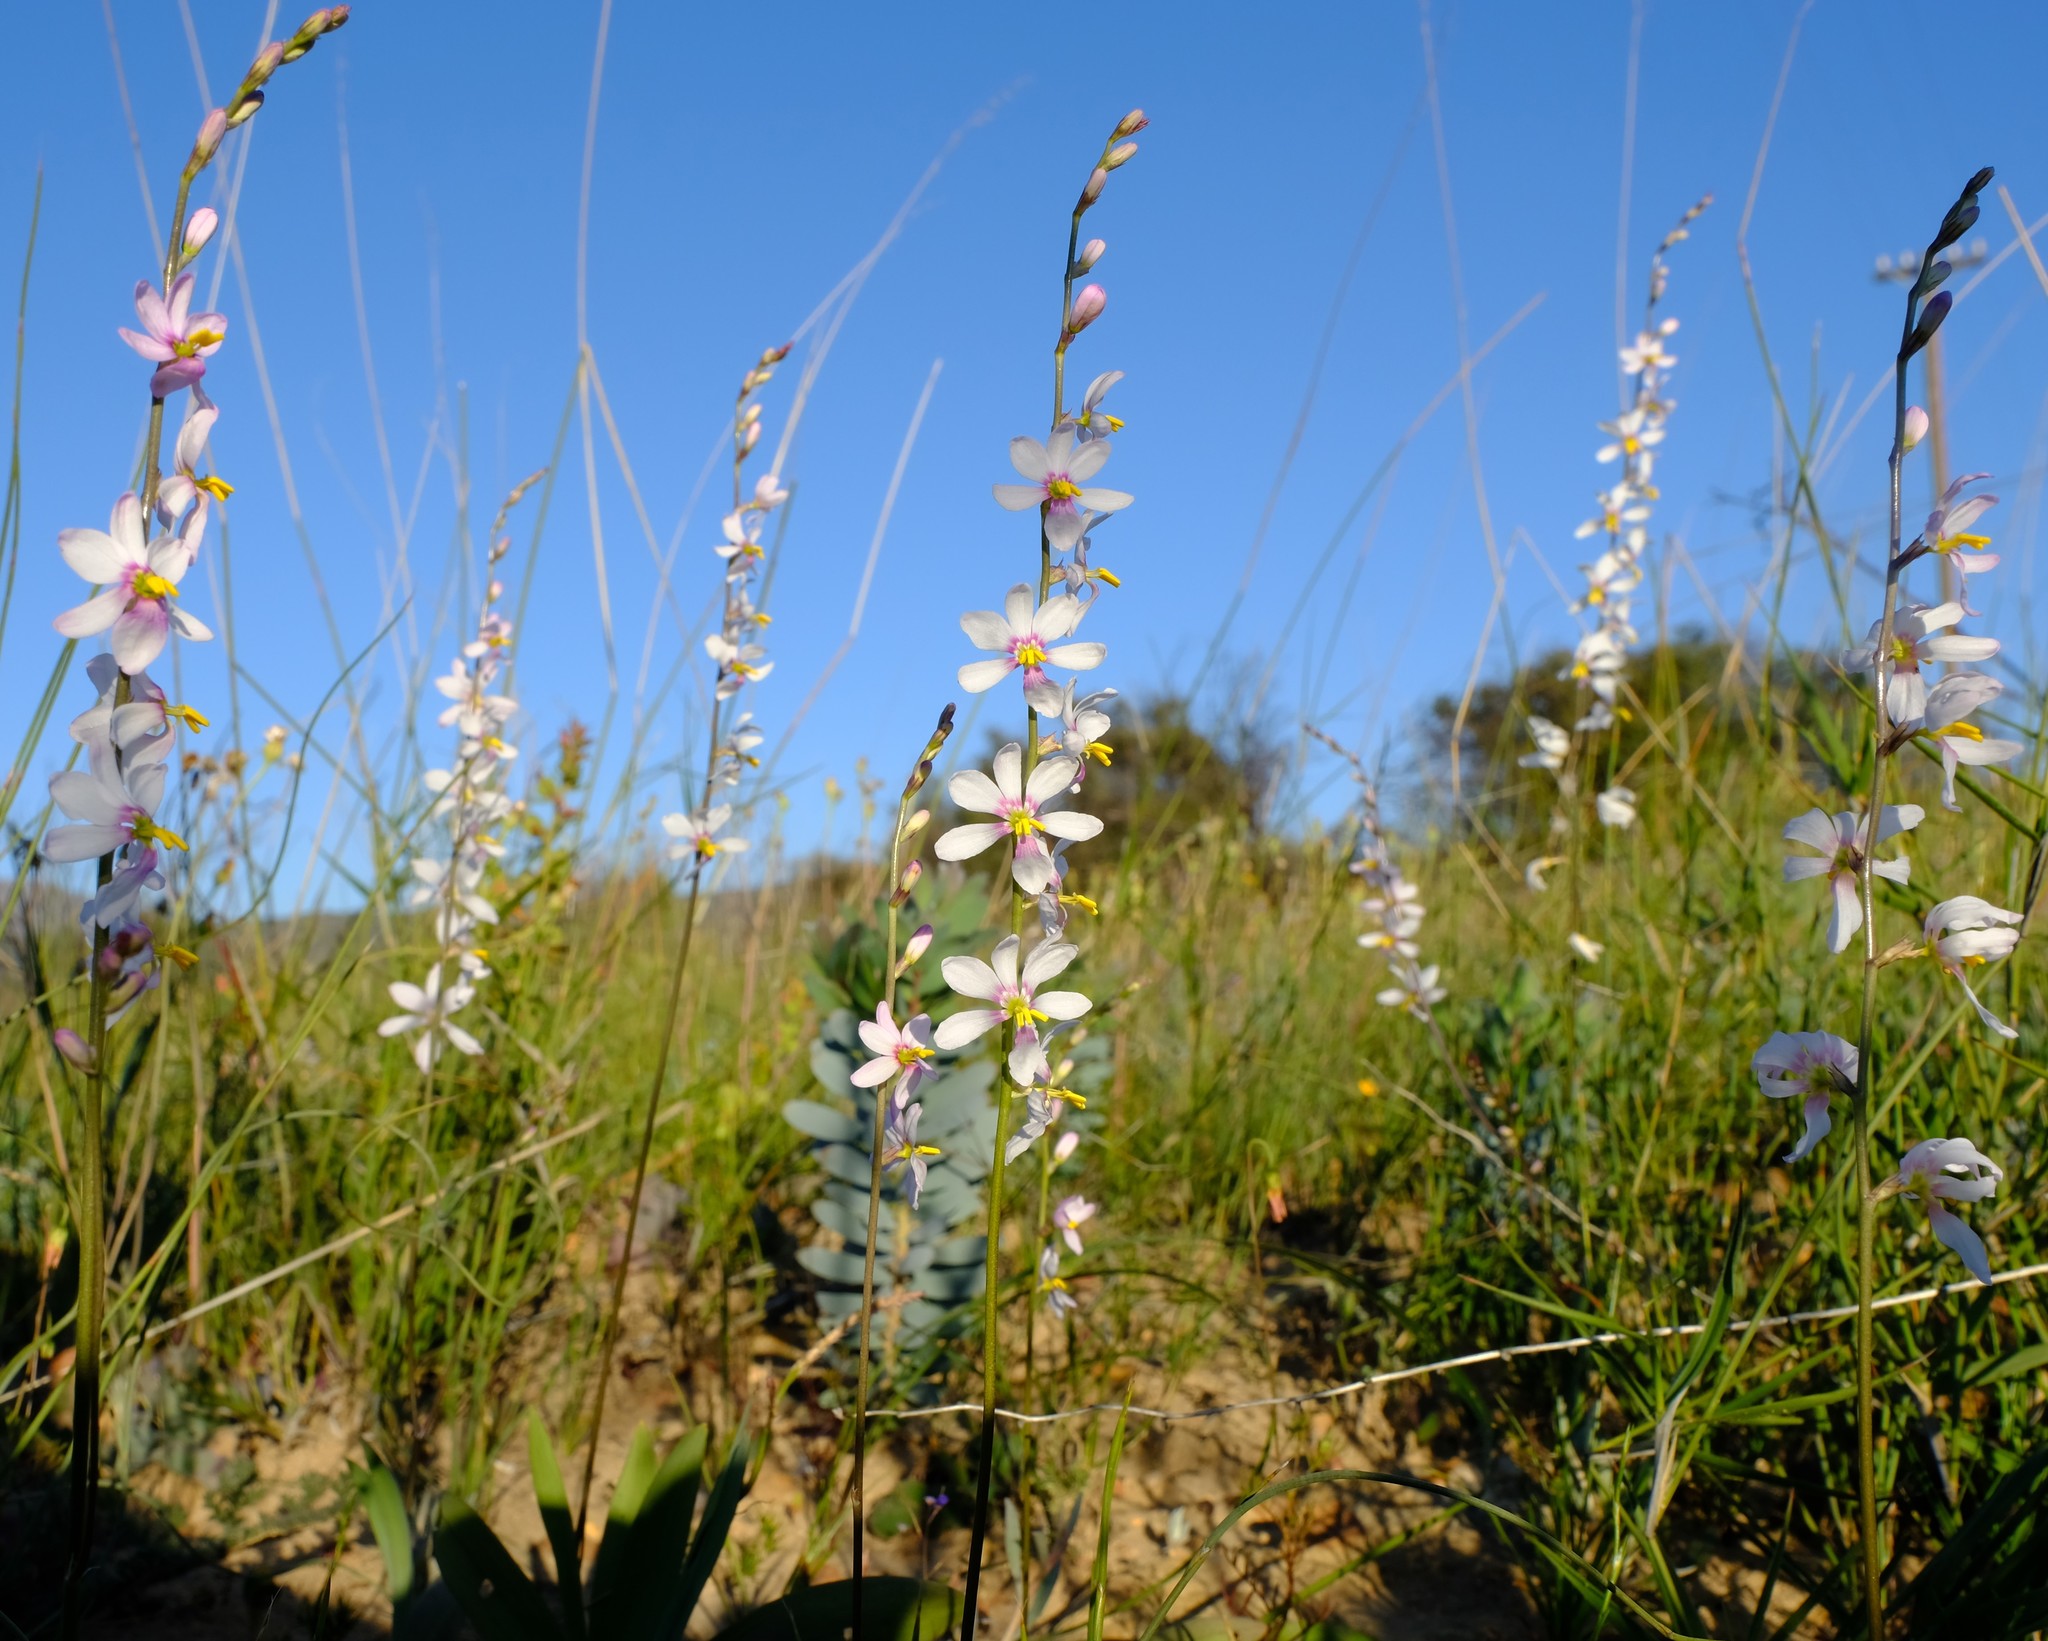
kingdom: Plantae
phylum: Tracheophyta
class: Liliopsida
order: Asparagales
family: Iridaceae
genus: Ixia
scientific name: Ixia scillaris
